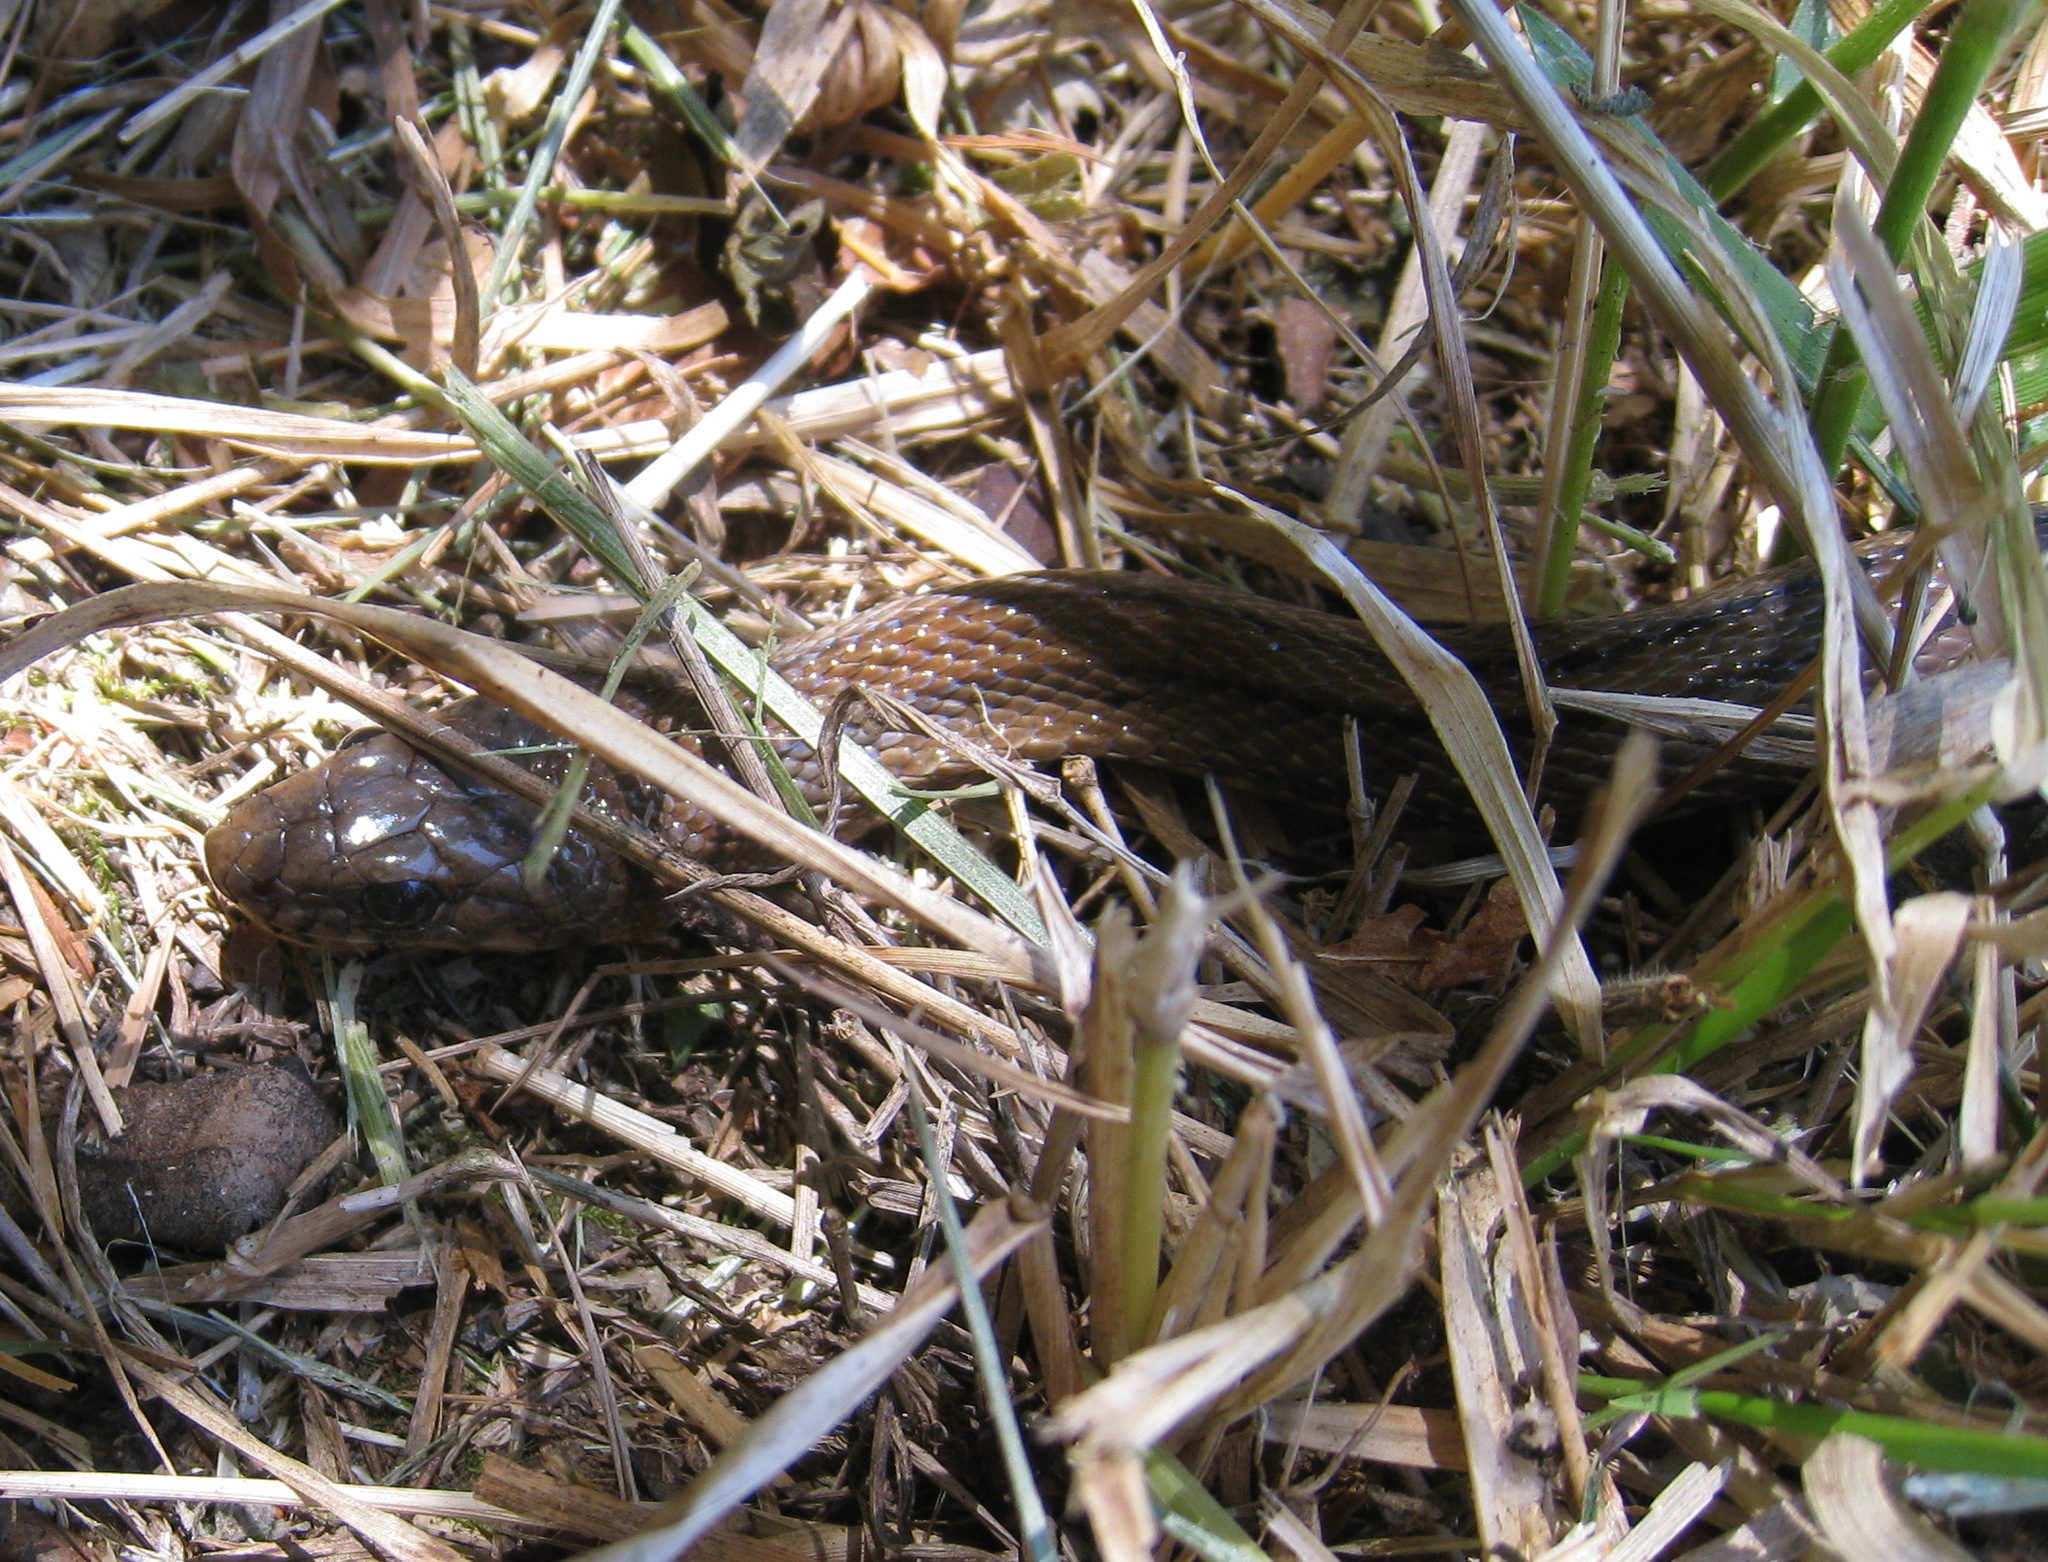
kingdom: Animalia
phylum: Chordata
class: Squamata
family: Colubridae
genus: Zamenis
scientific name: Zamenis scalaris
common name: Ladder snakes
